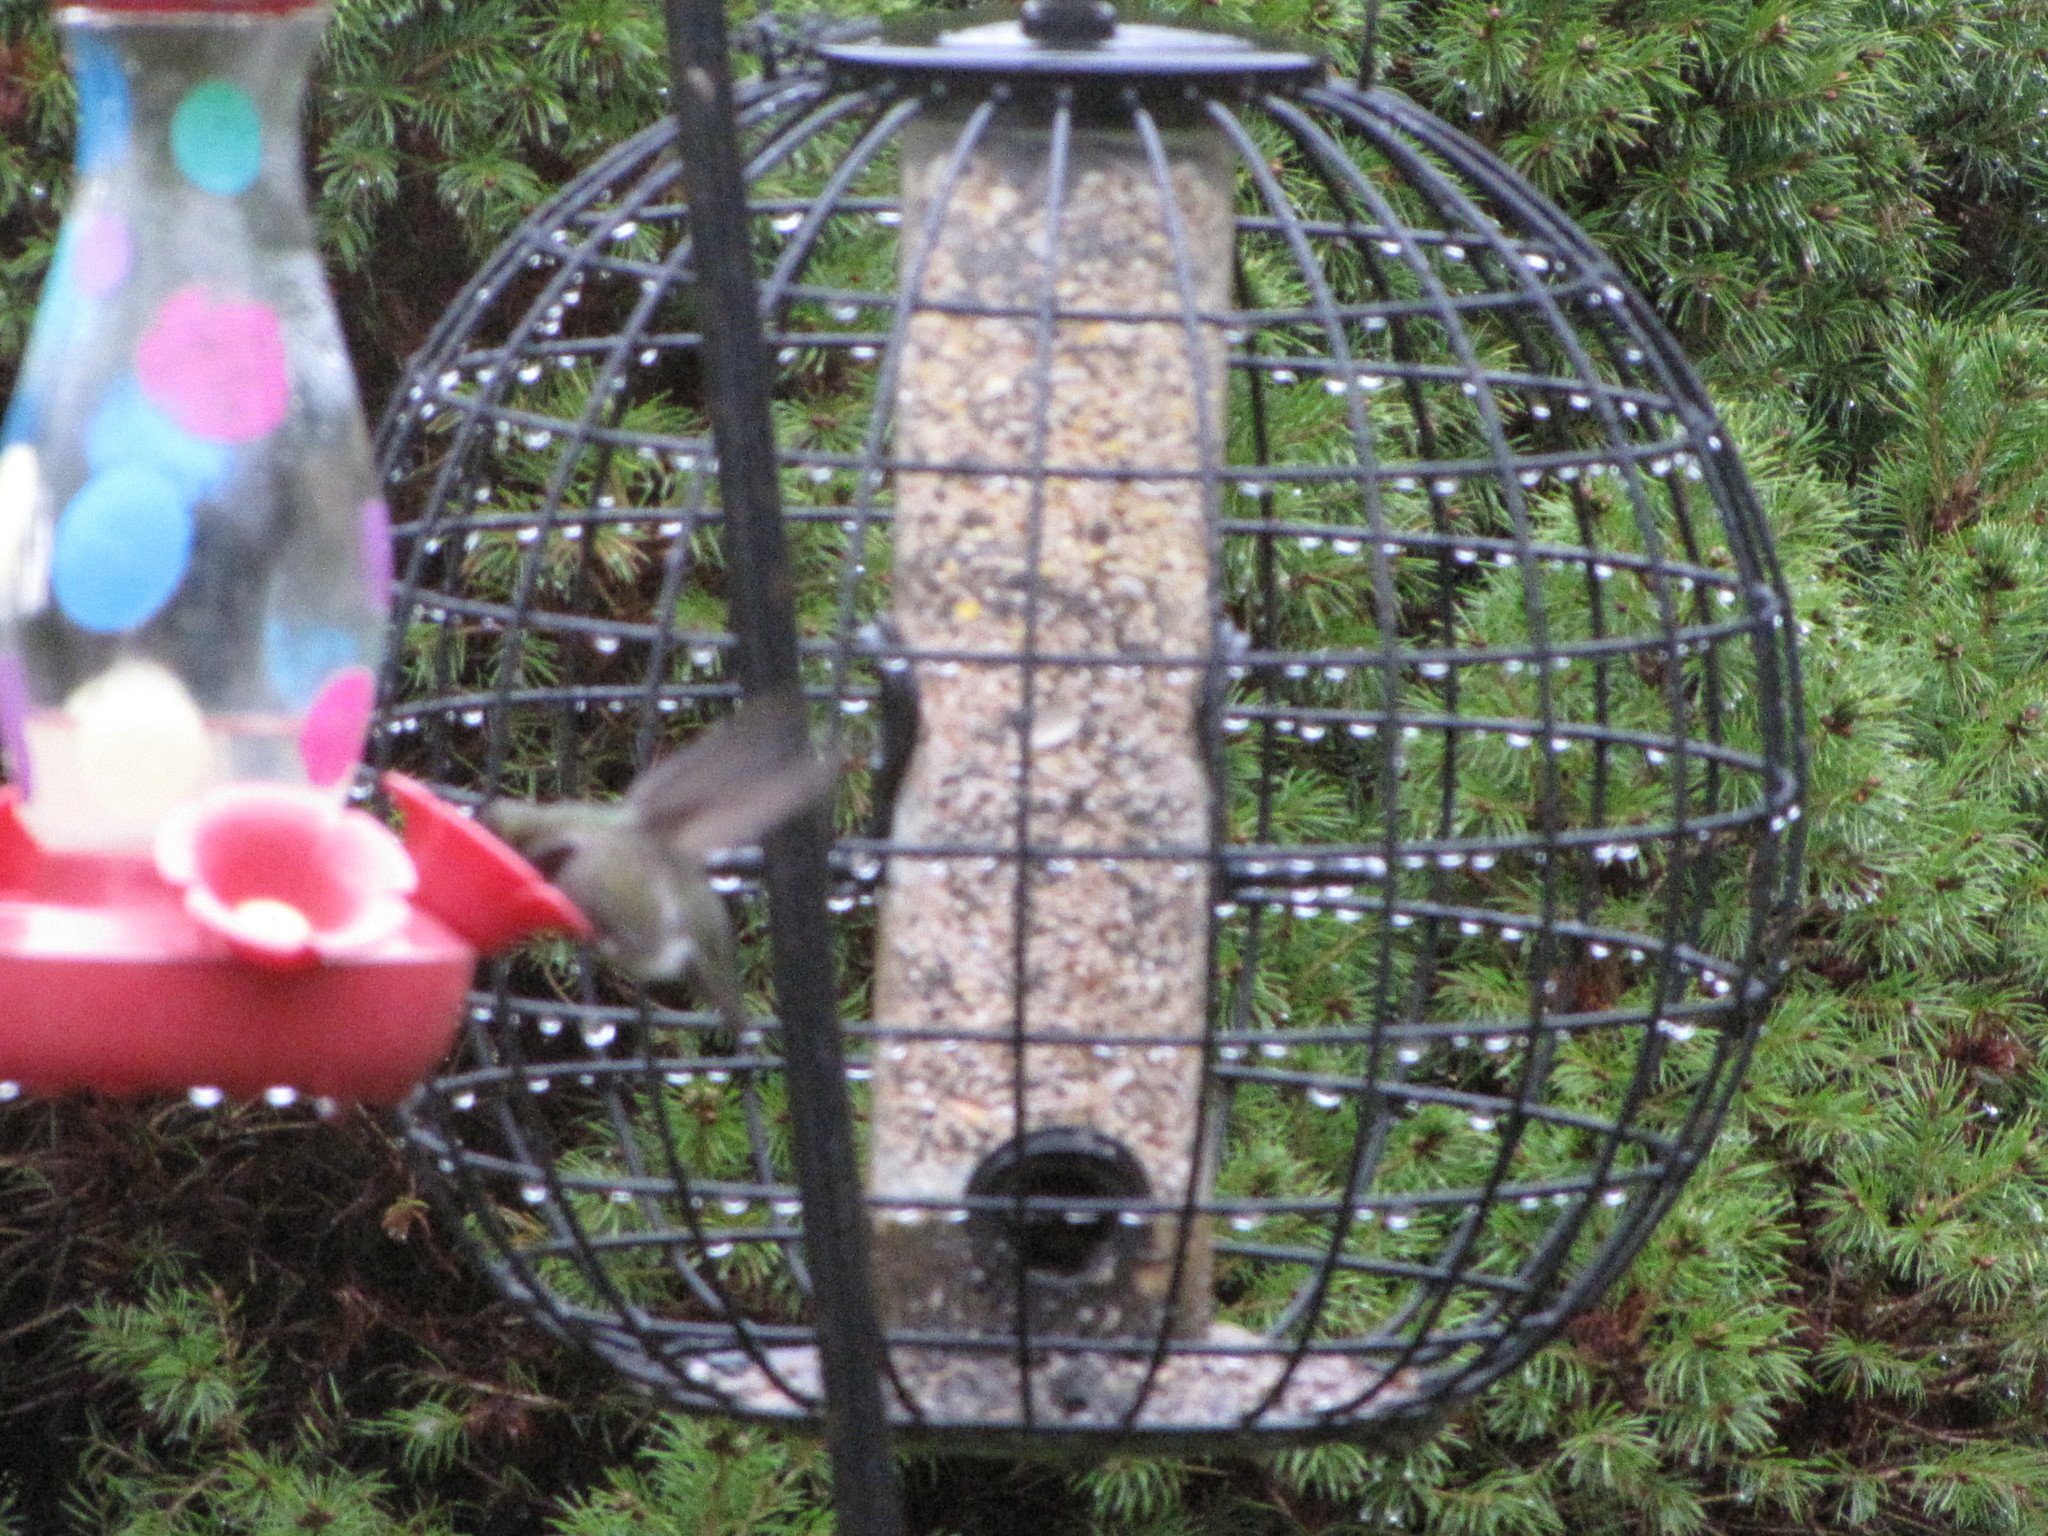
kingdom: Animalia
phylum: Chordata
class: Aves
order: Apodiformes
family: Trochilidae
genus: Calypte
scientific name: Calypte anna
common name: Anna's hummingbird
